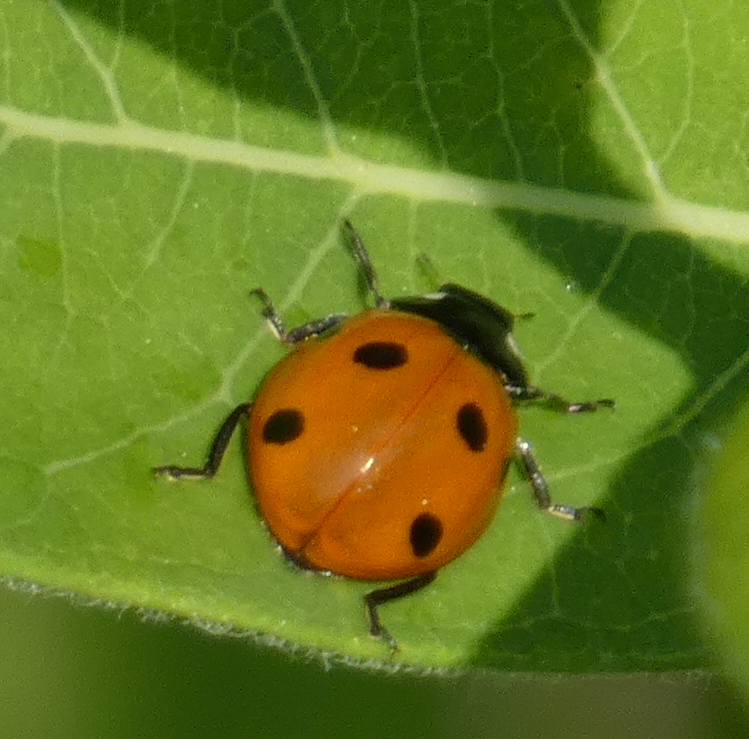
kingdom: Animalia
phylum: Arthropoda
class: Insecta
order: Coleoptera
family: Coccinellidae
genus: Coccinella
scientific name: Coccinella septempunctata
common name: Sevenspotted lady beetle
